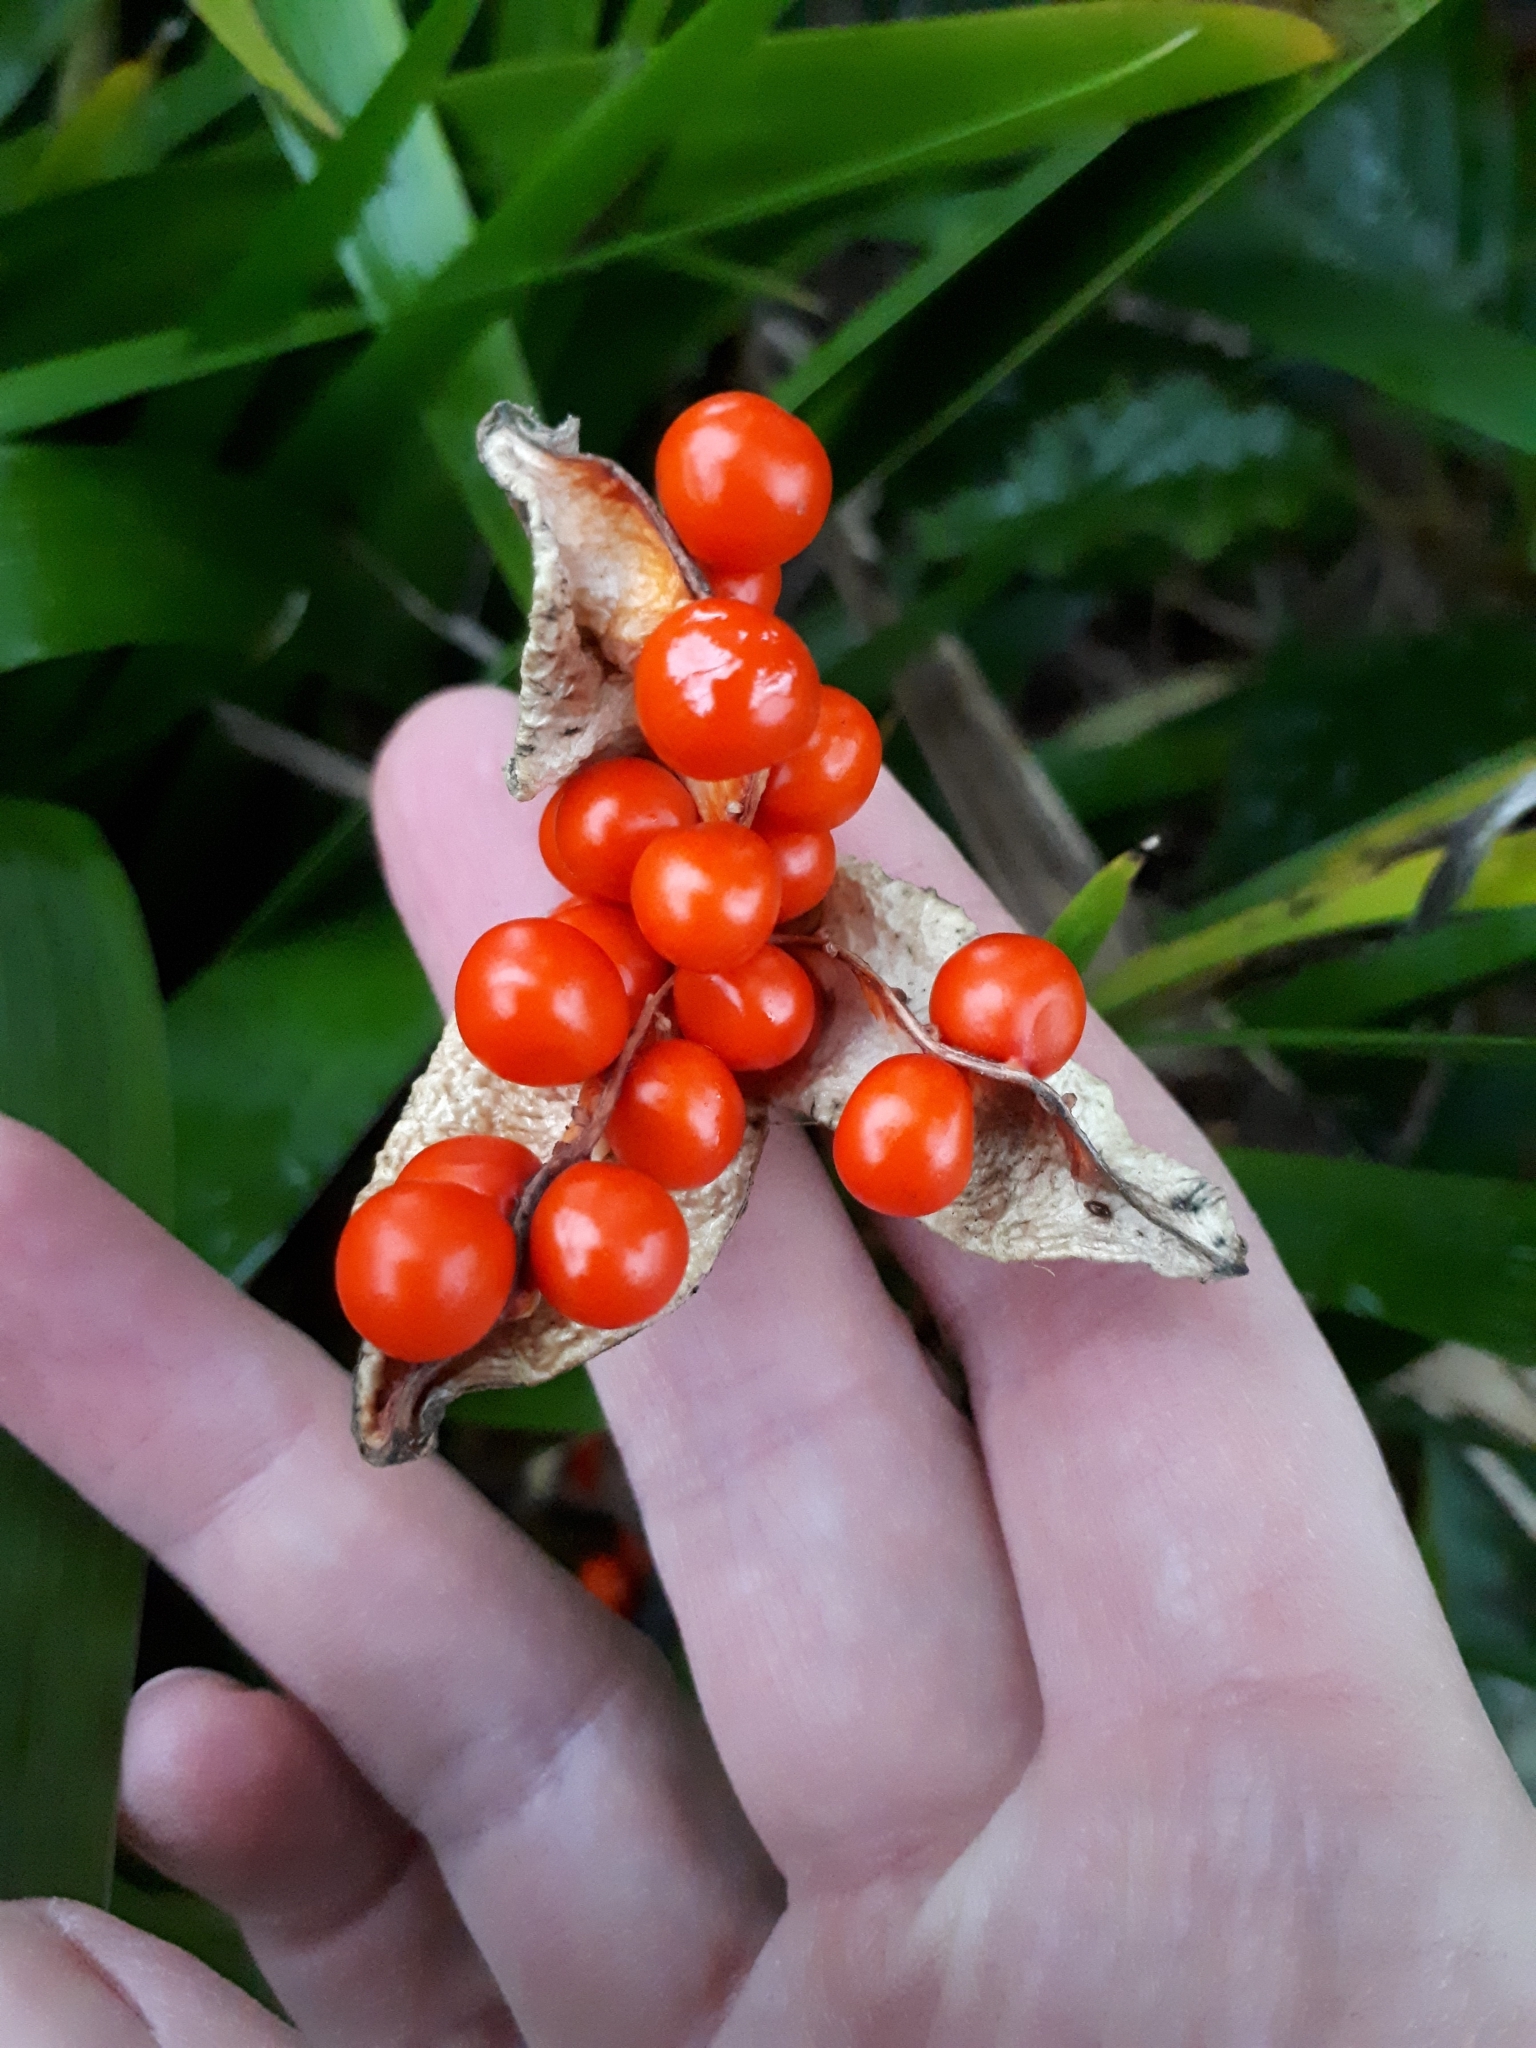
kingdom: Plantae
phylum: Tracheophyta
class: Liliopsida
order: Asparagales
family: Iridaceae
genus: Iris
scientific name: Iris foetidissima
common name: Stinking iris
